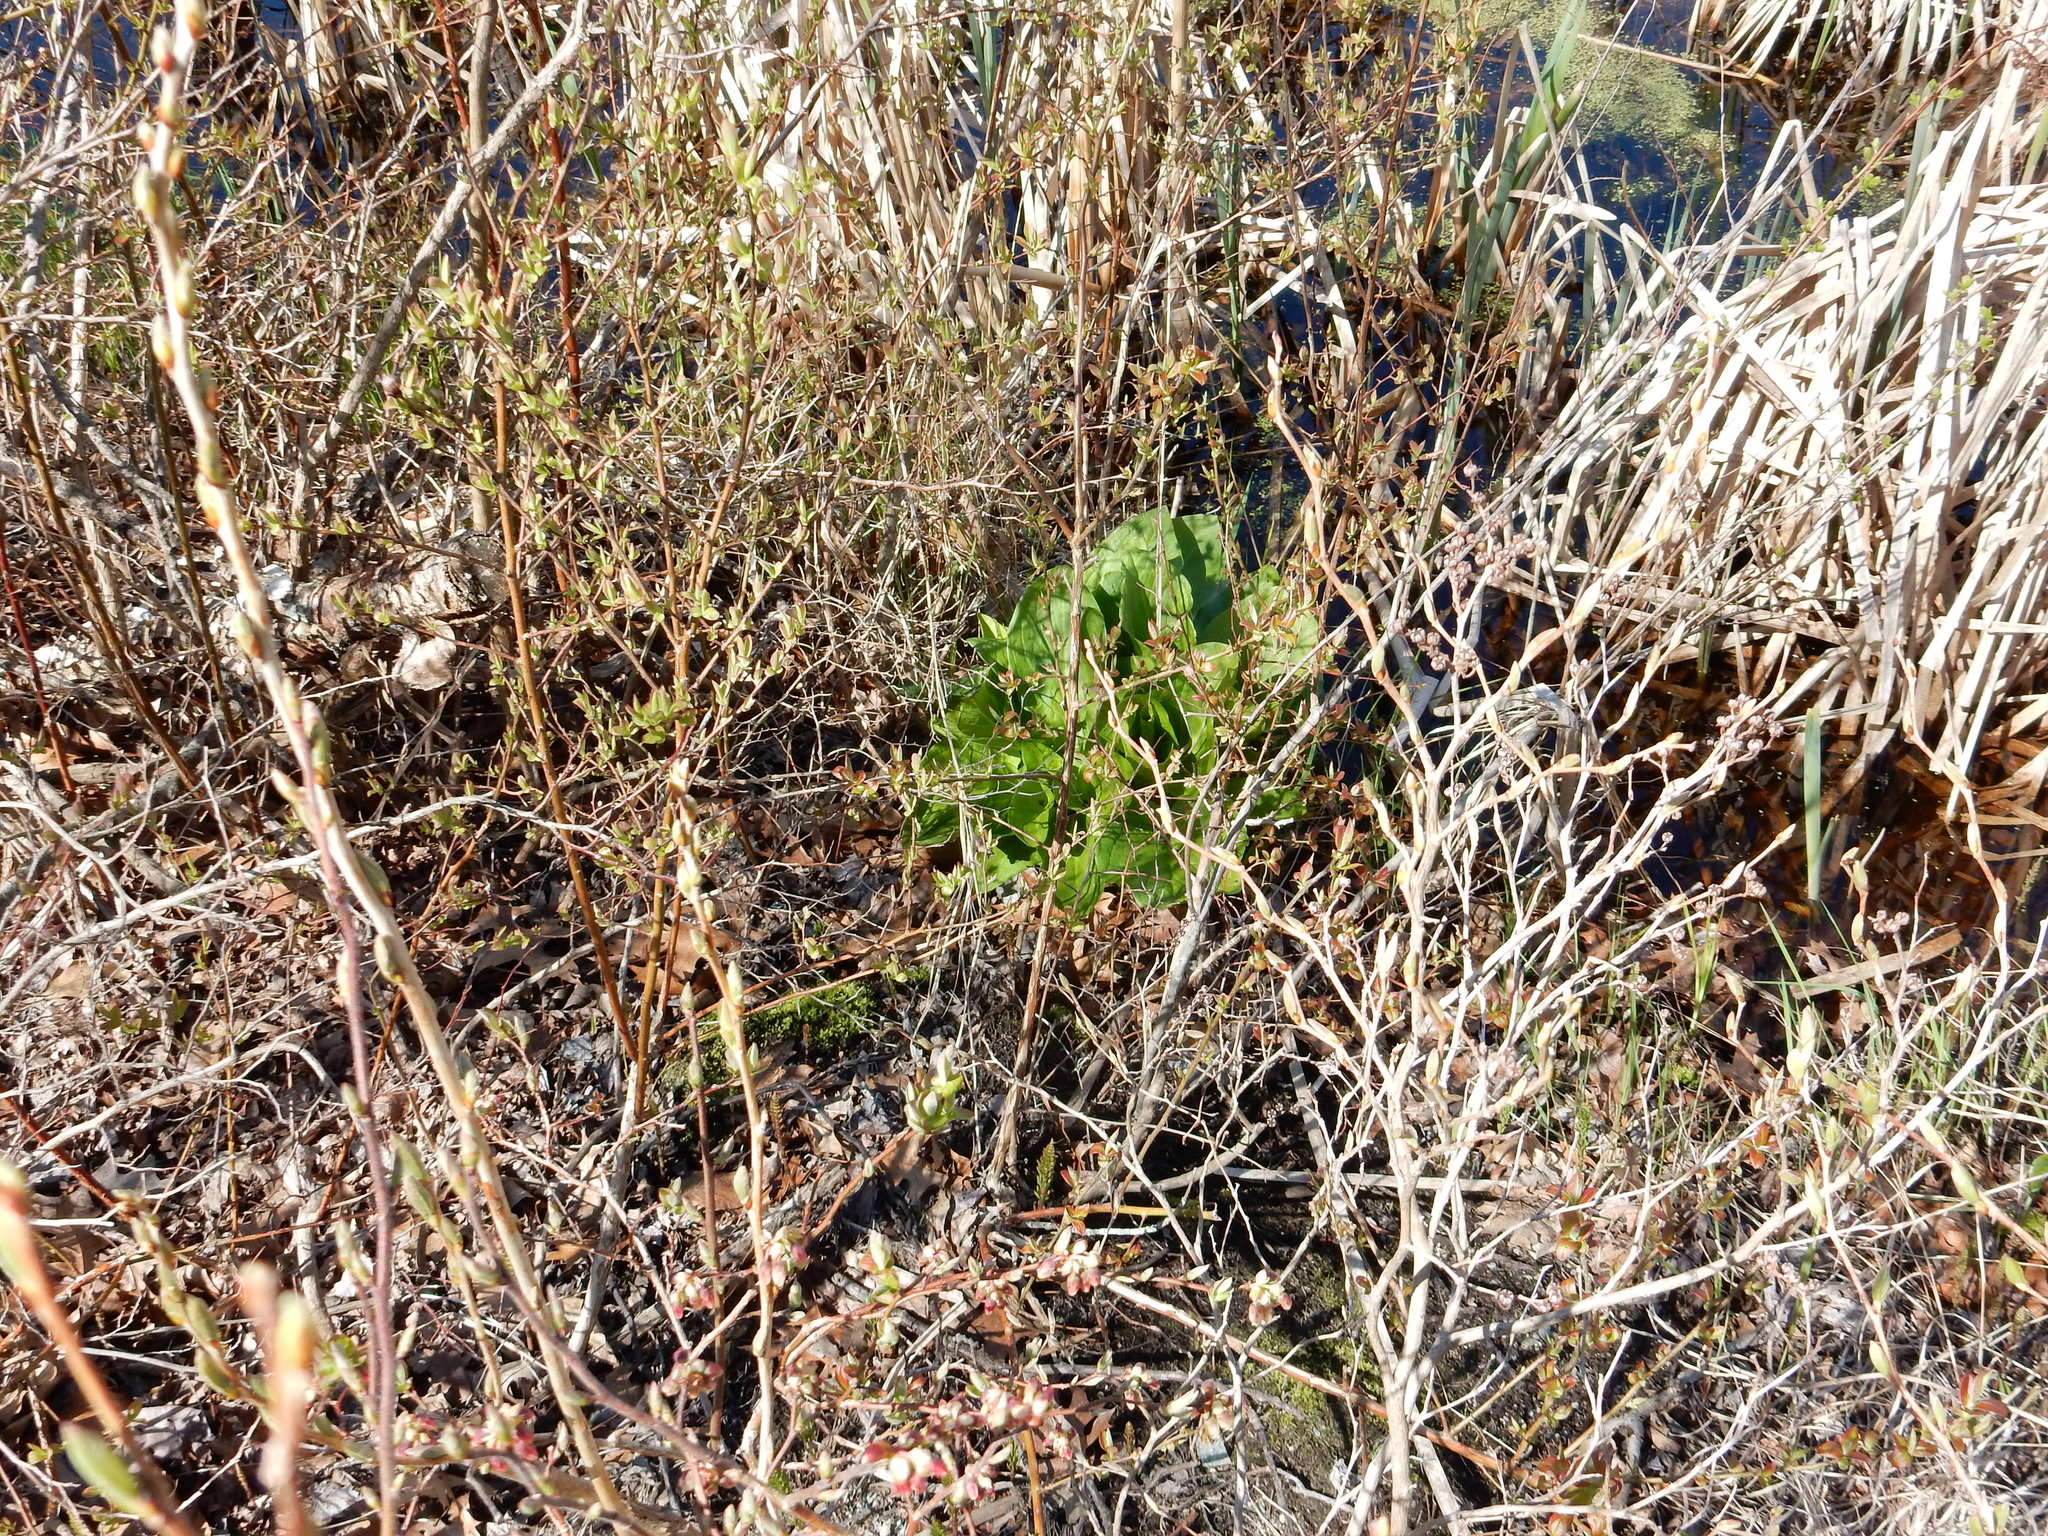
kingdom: Plantae
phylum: Tracheophyta
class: Liliopsida
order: Alismatales
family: Araceae
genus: Symplocarpus
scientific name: Symplocarpus foetidus
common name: Eastern skunk cabbage
